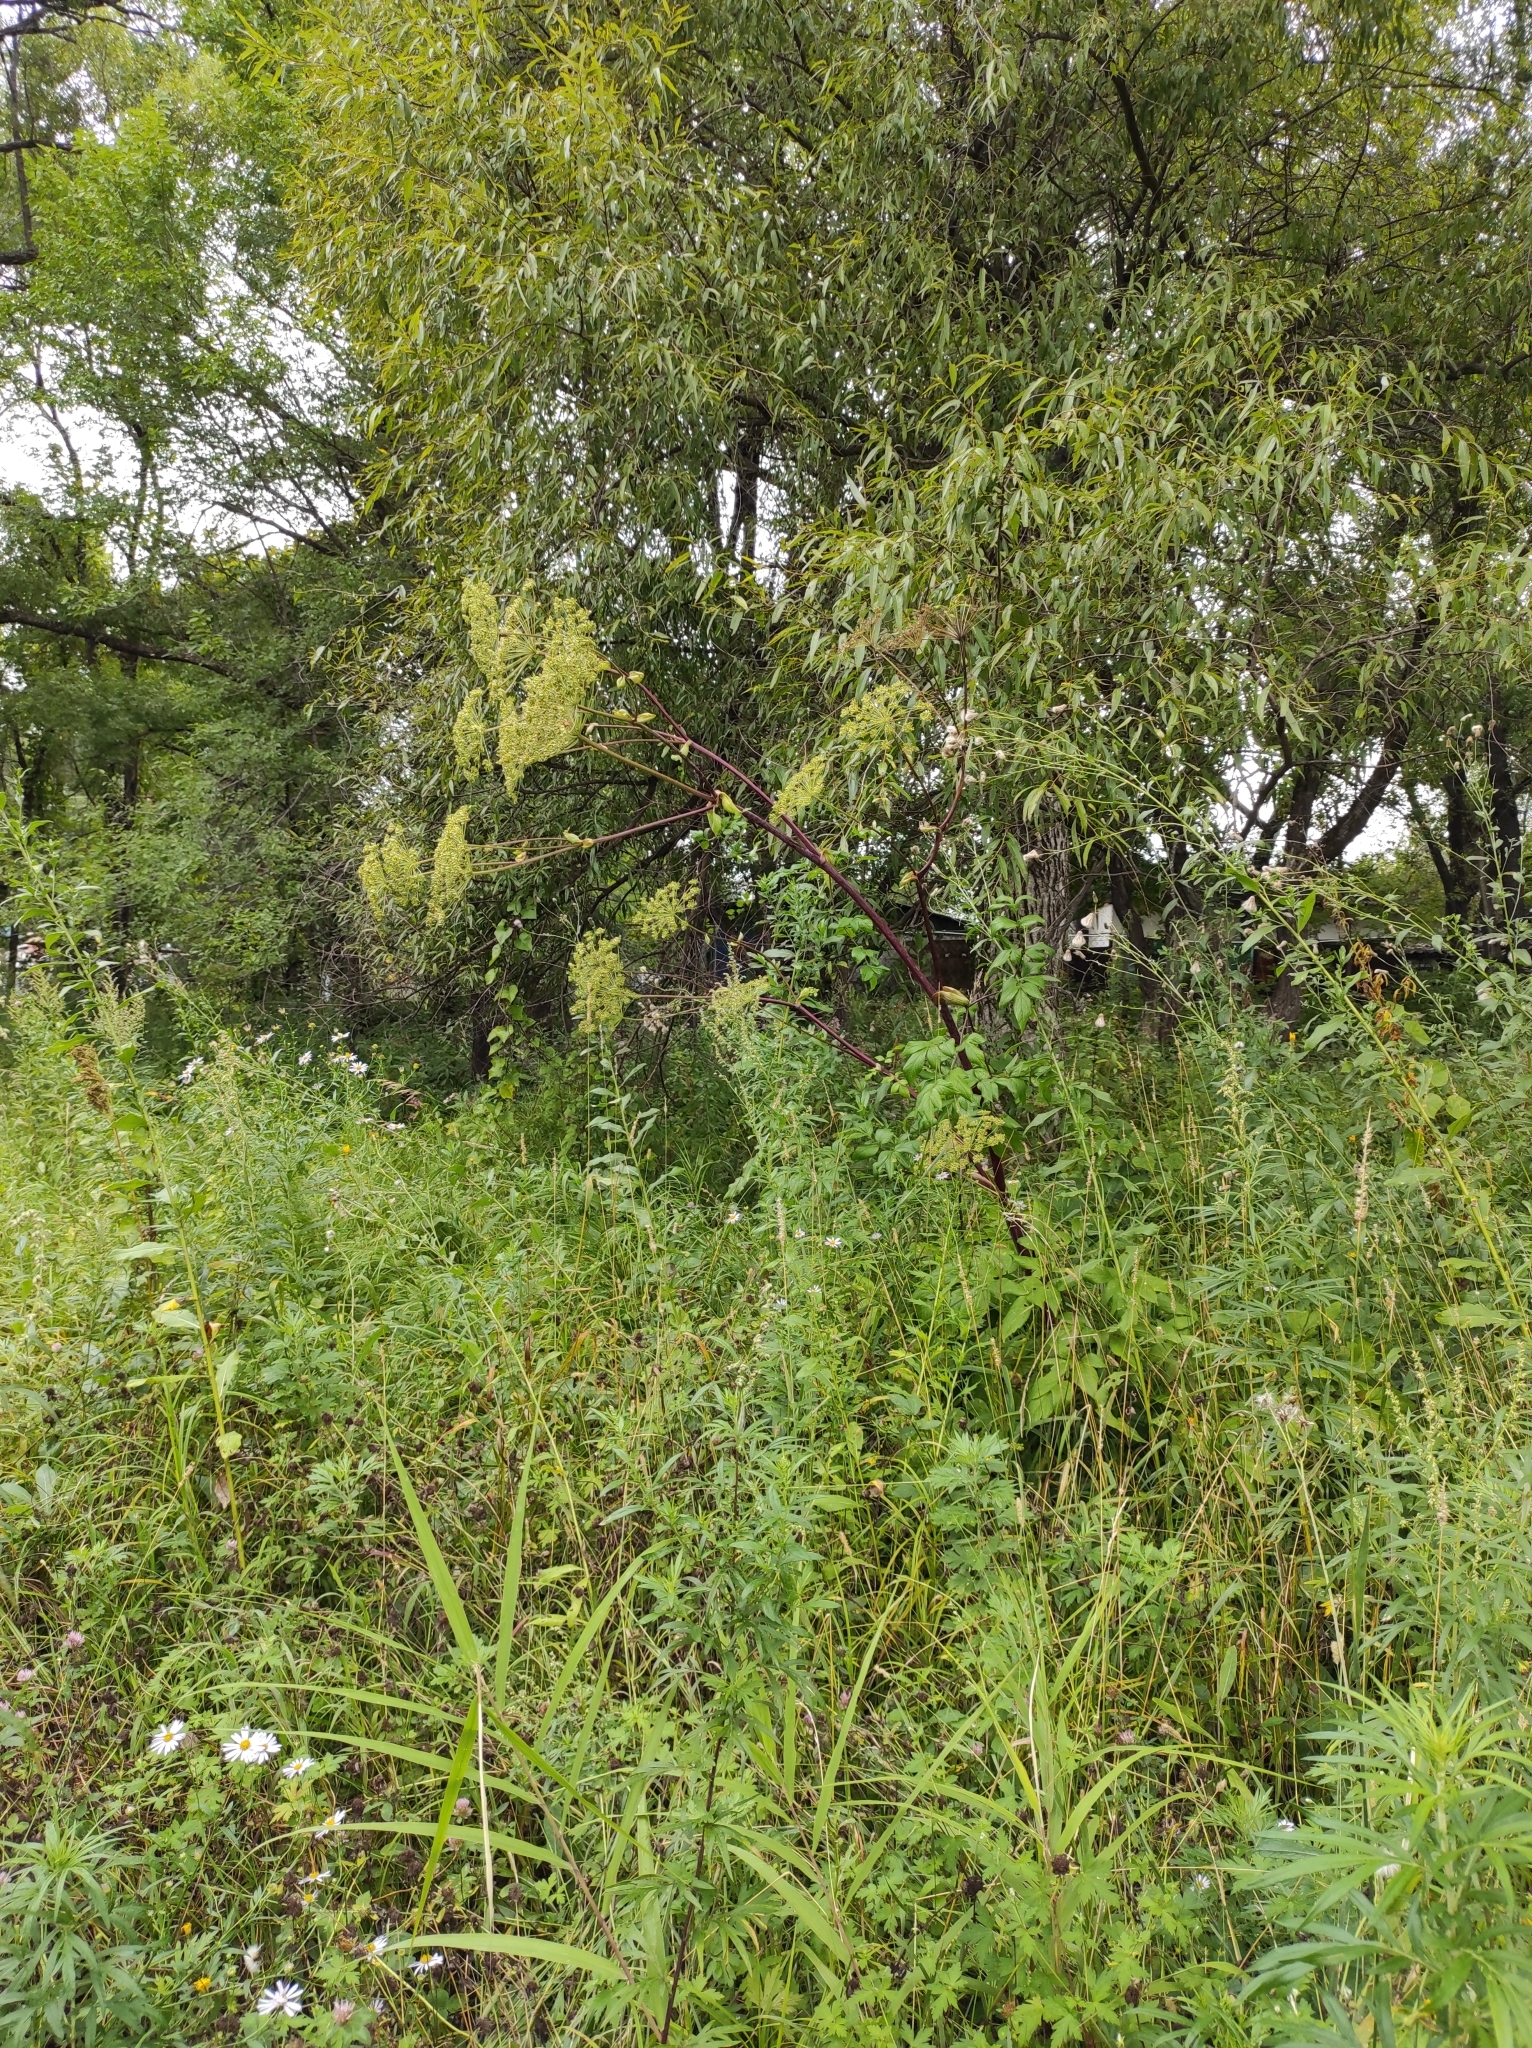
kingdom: Plantae
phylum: Tracheophyta
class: Magnoliopsida
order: Apiales
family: Apiaceae
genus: Angelica
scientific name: Angelica cincta
